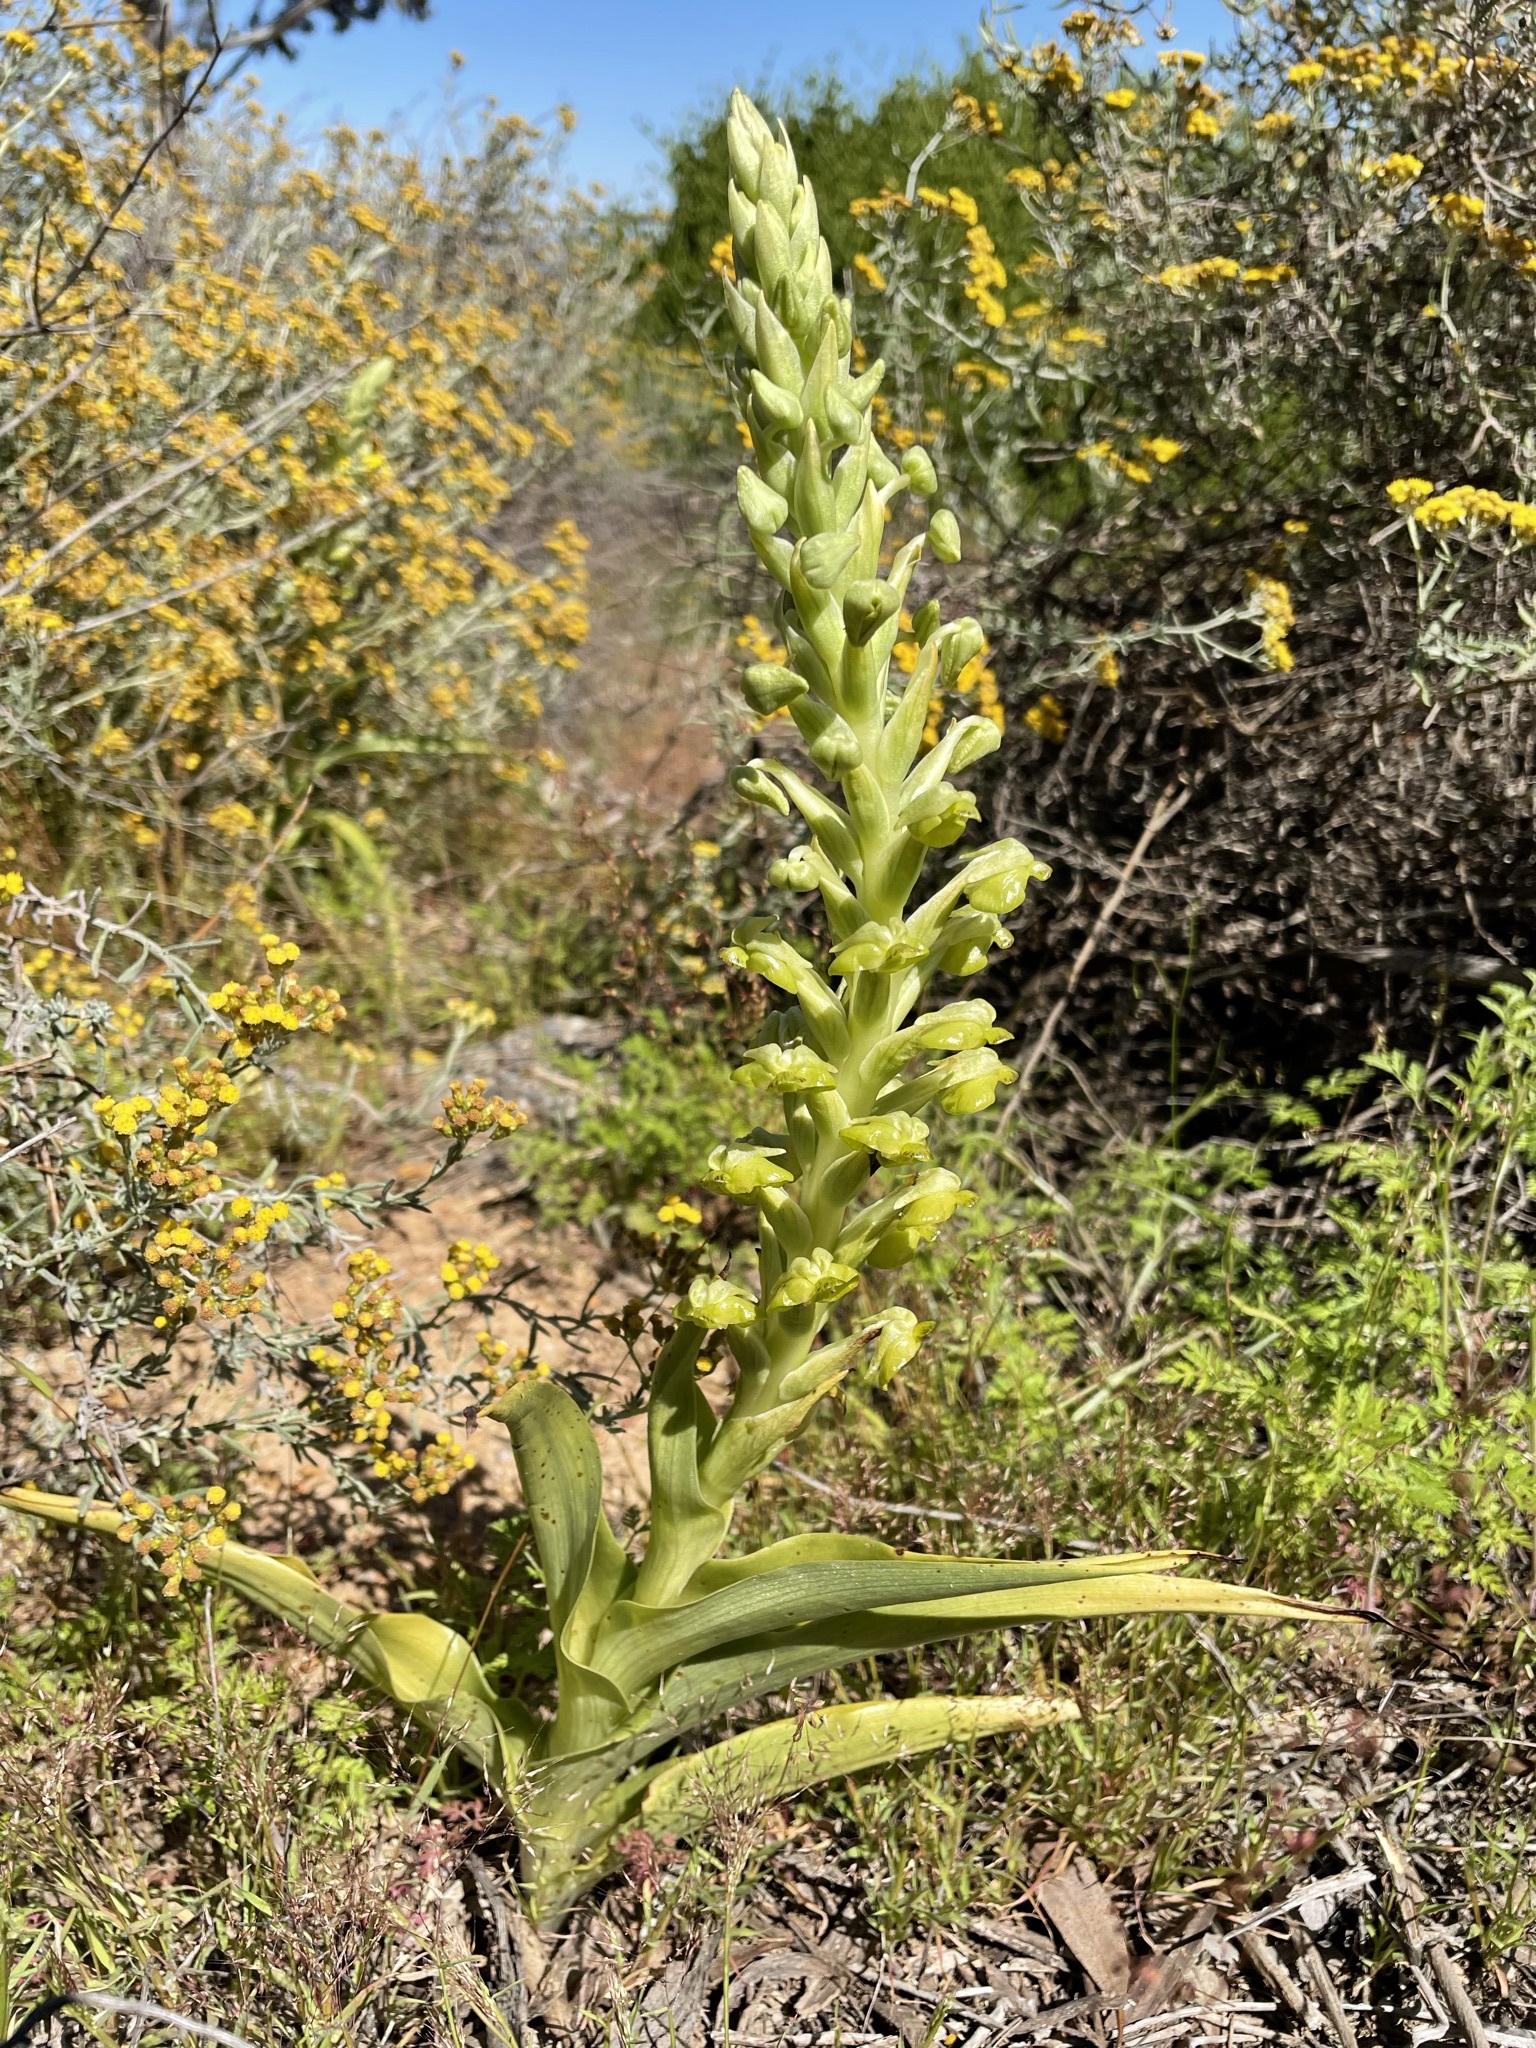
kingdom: Plantae
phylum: Tracheophyta
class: Liliopsida
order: Asparagales
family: Orchidaceae
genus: Pterygodium
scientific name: Pterygodium hallii
